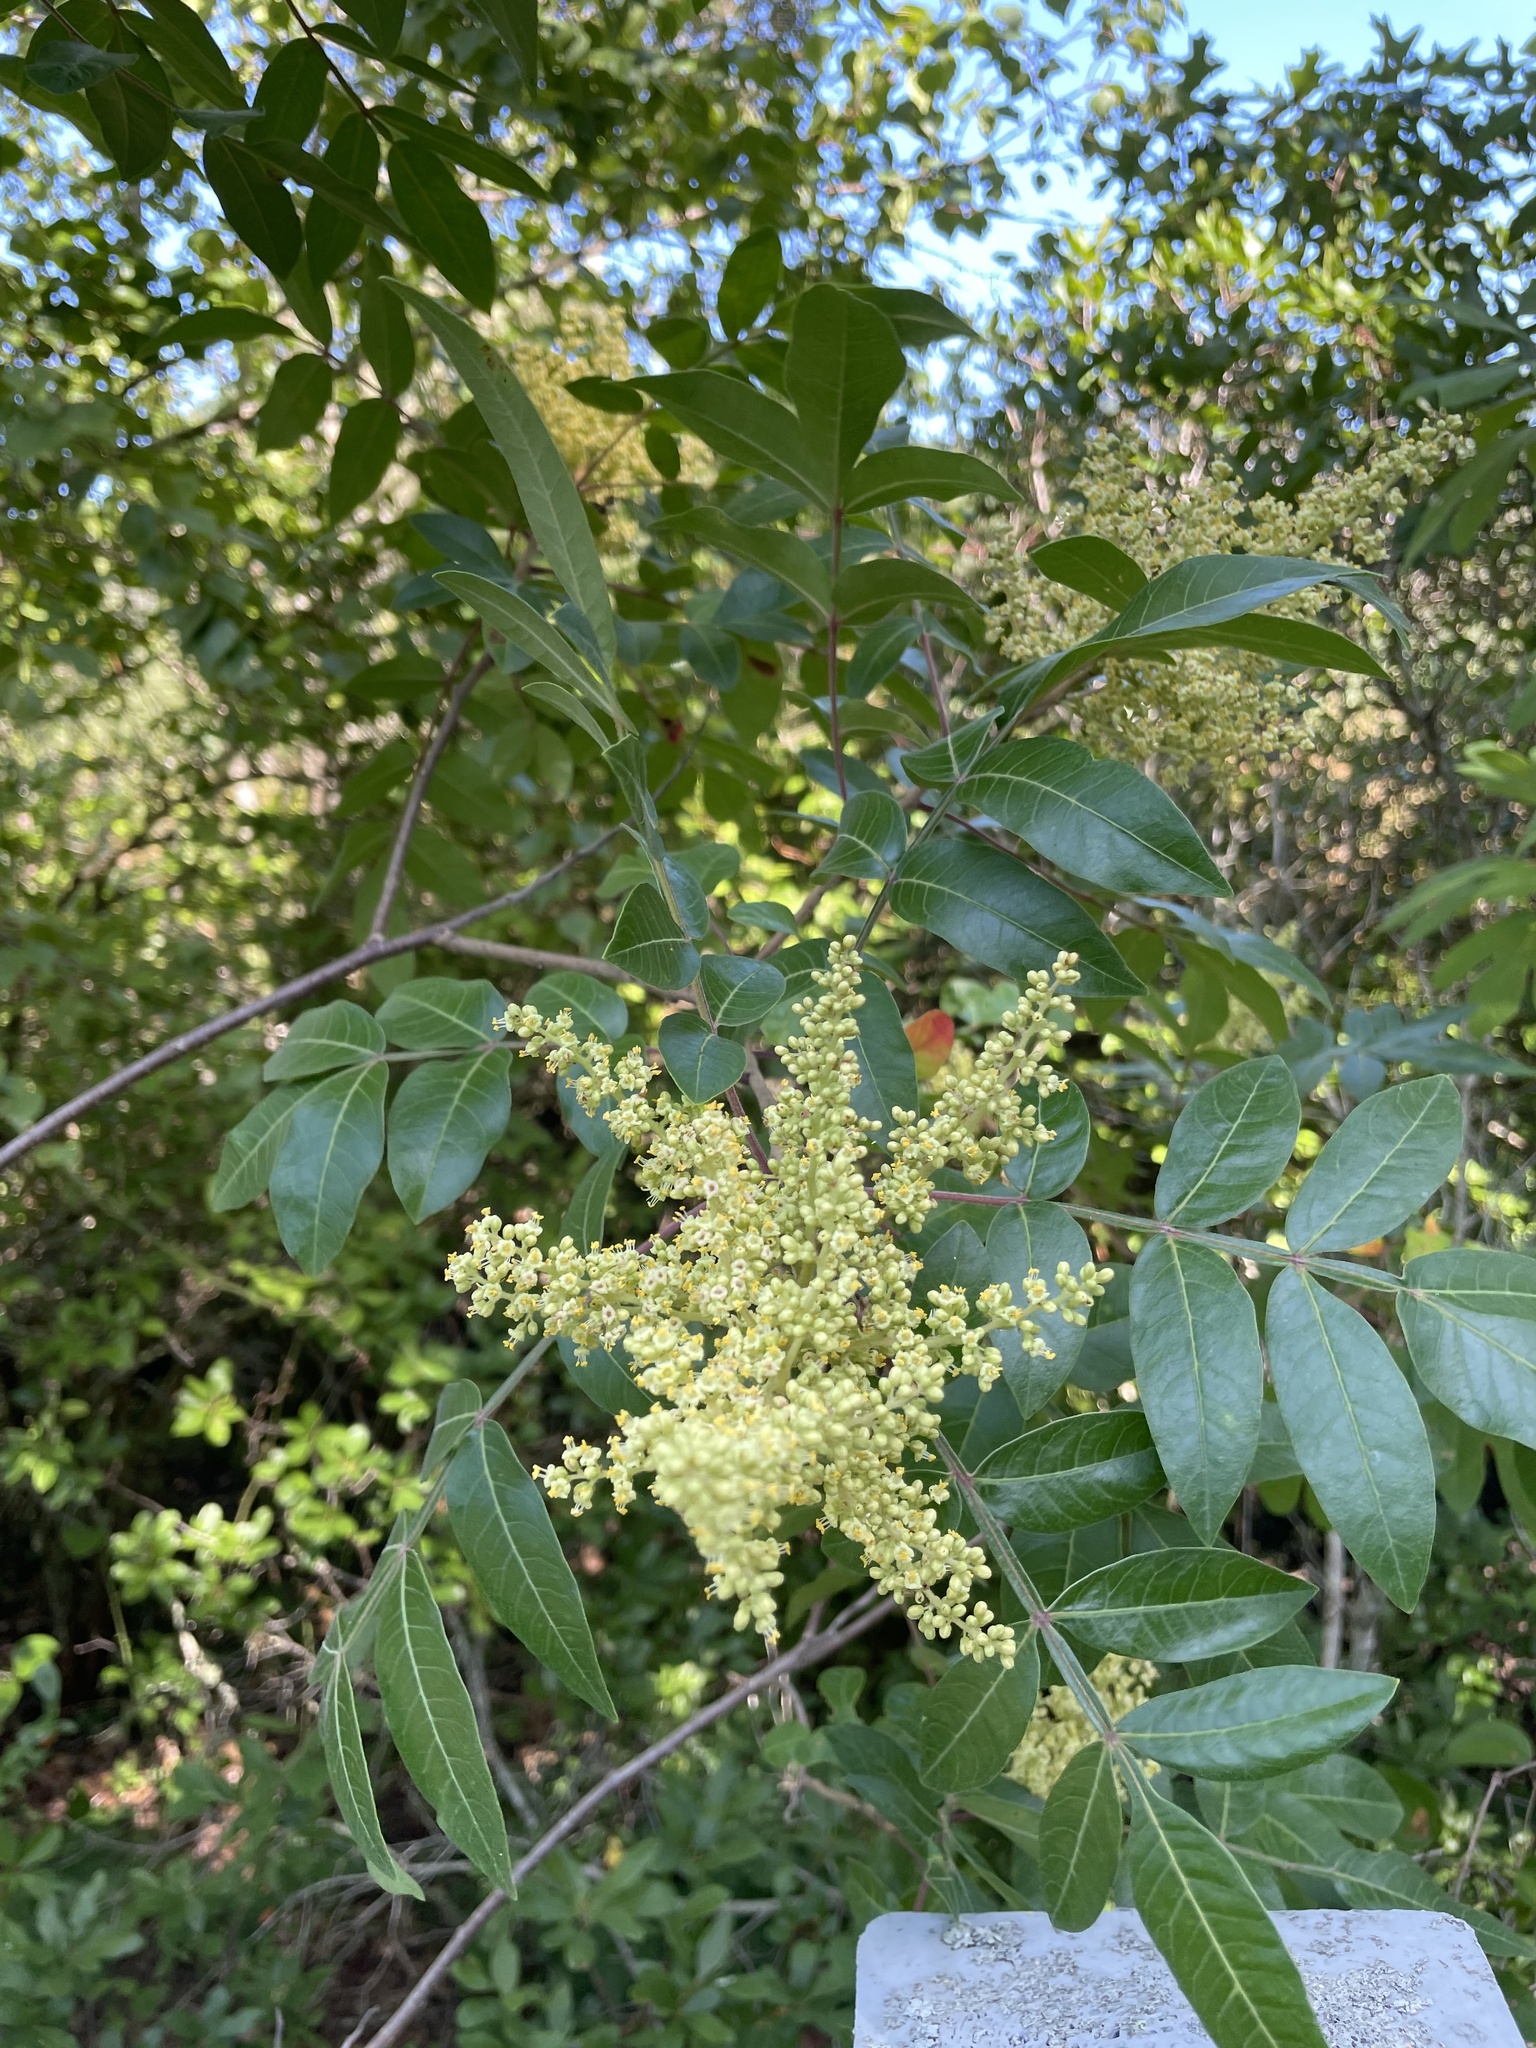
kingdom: Plantae
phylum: Tracheophyta
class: Magnoliopsida
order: Sapindales
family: Anacardiaceae
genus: Rhus
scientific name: Rhus copallina
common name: Shining sumac
